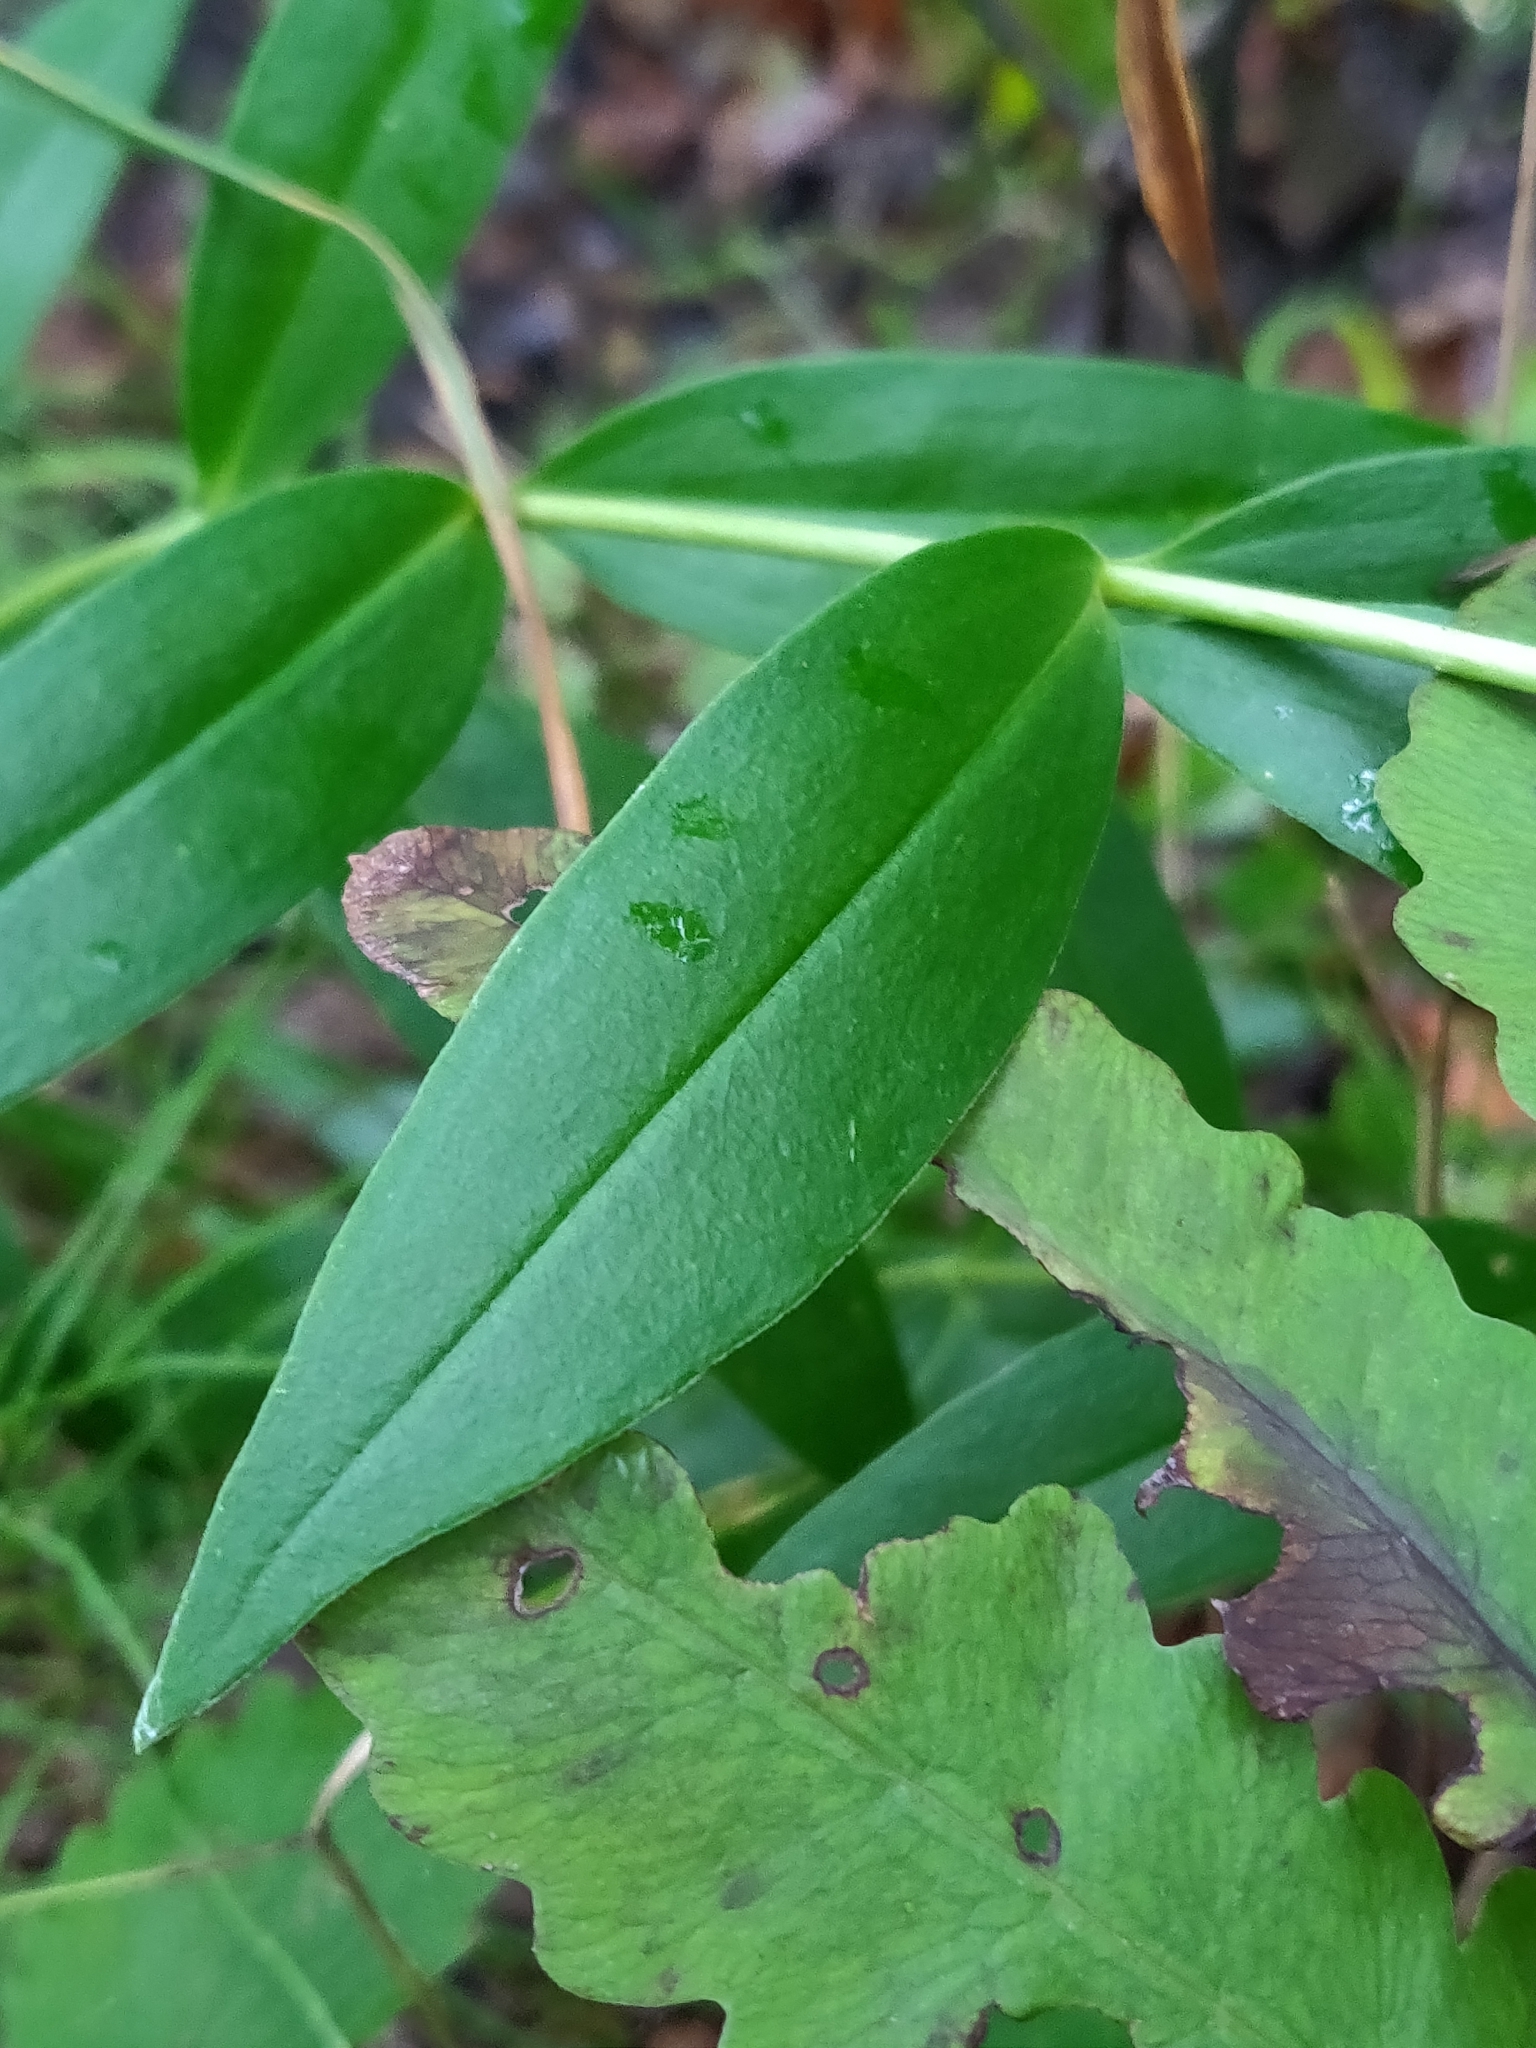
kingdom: Plantae
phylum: Tracheophyta
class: Magnoliopsida
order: Gentianales
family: Gentianaceae
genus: Gentiana
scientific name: Gentiana andrewsii
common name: Bottle gentian
